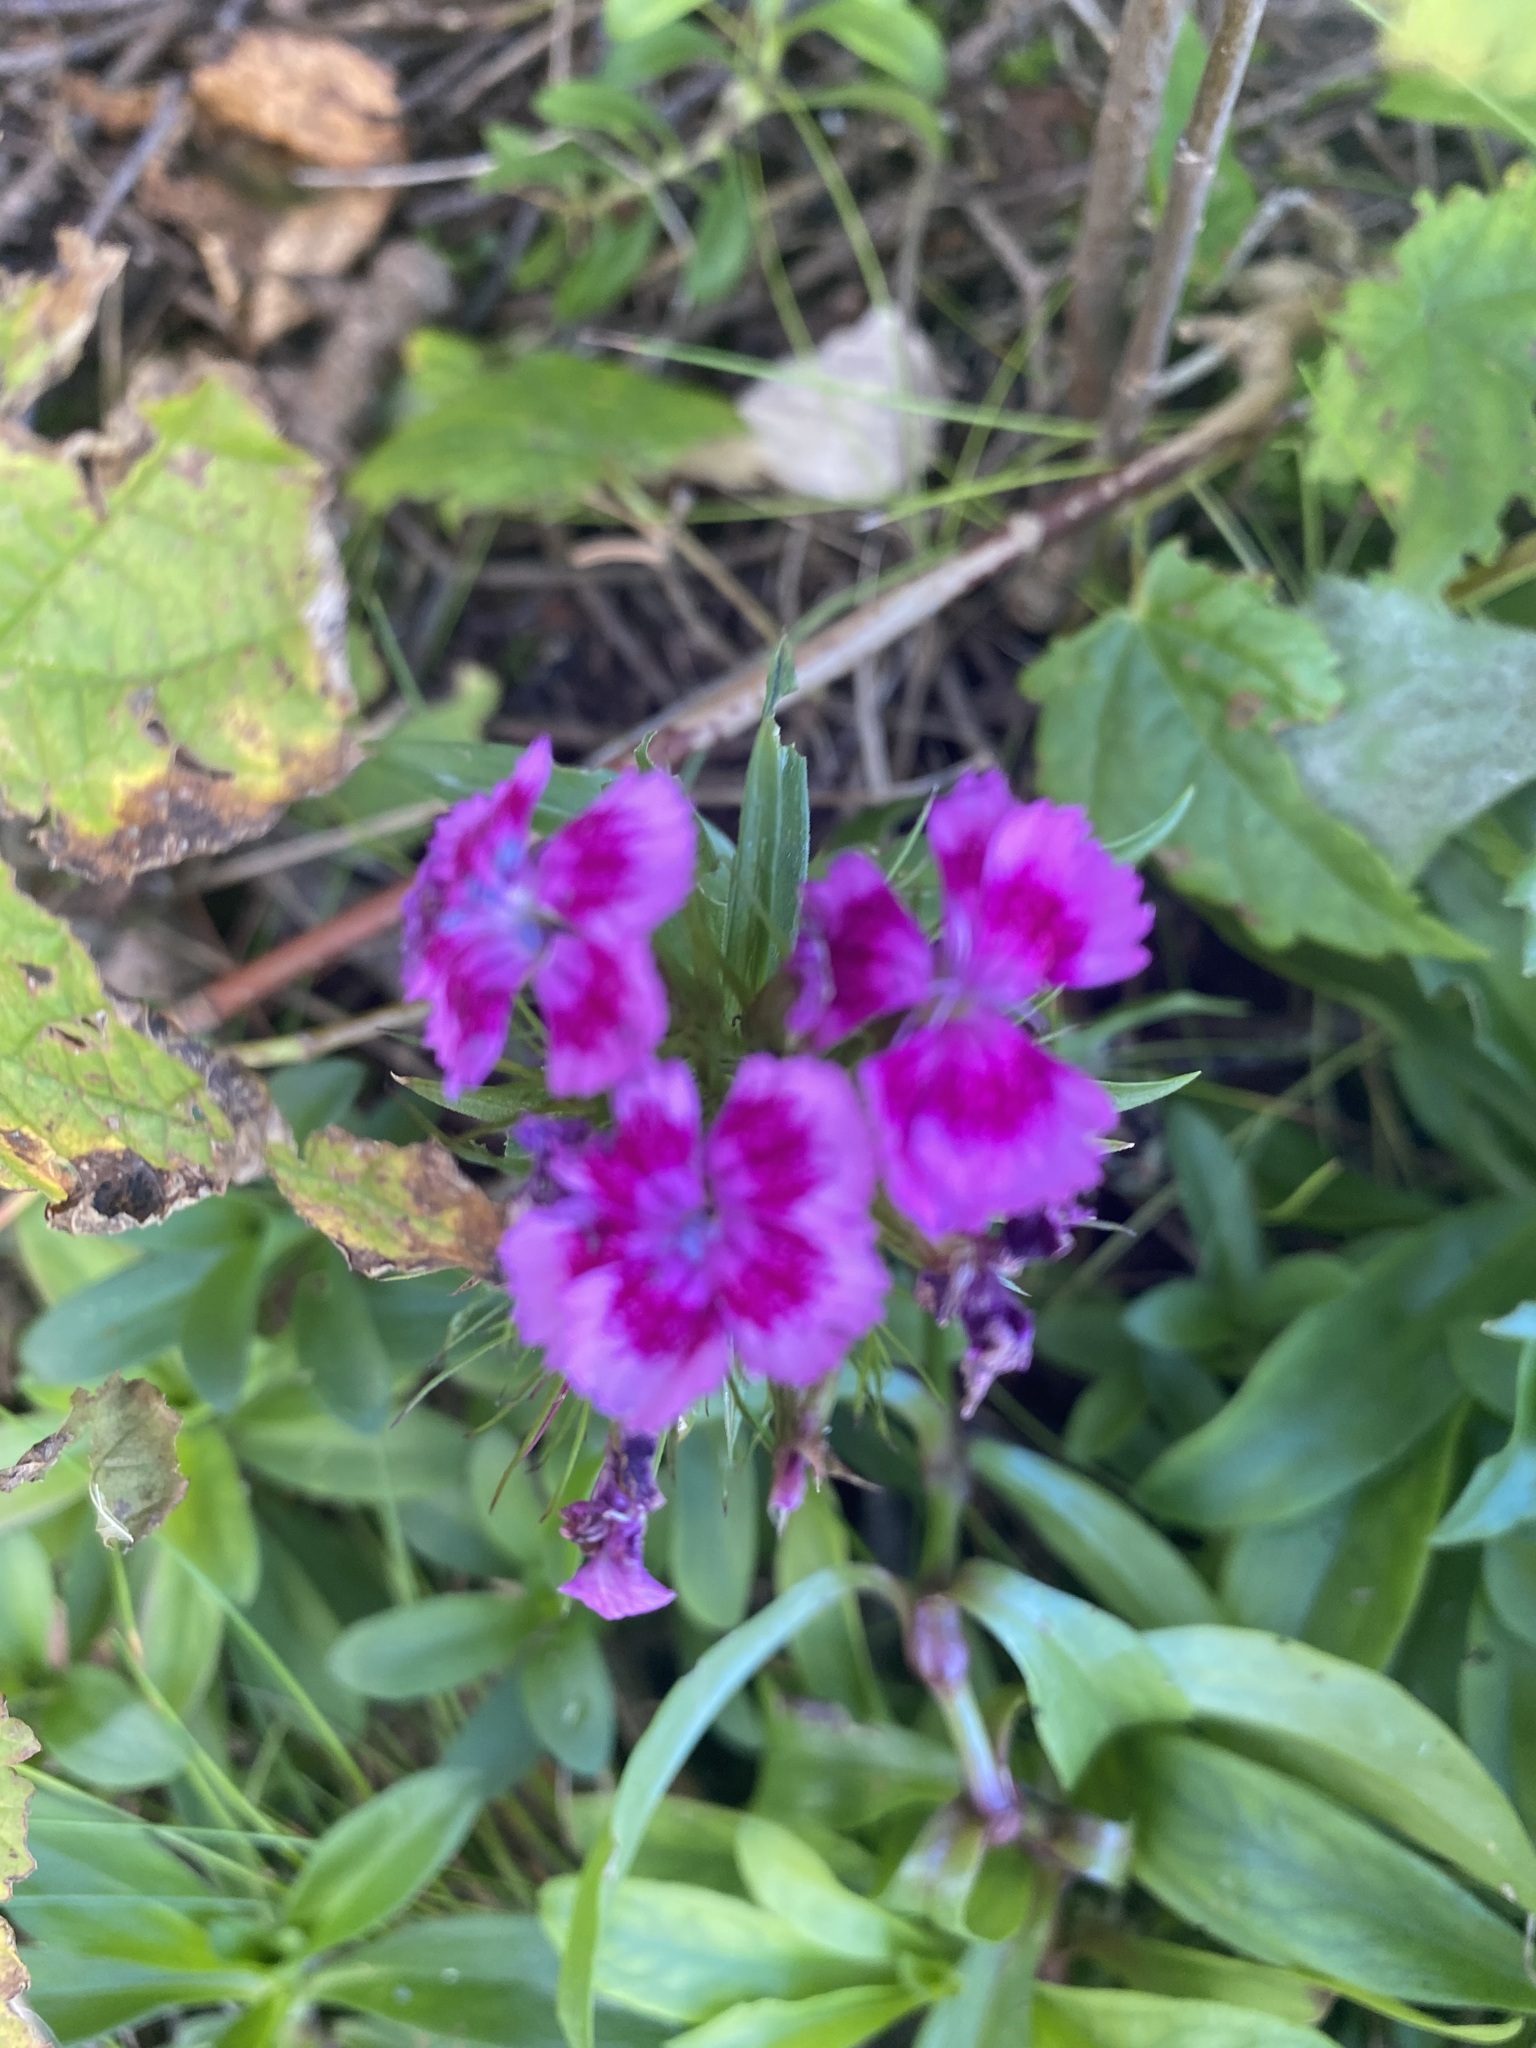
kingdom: Plantae
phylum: Tracheophyta
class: Magnoliopsida
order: Caryophyllales
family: Caryophyllaceae
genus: Dianthus
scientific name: Dianthus barbatus
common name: Sweet-william
